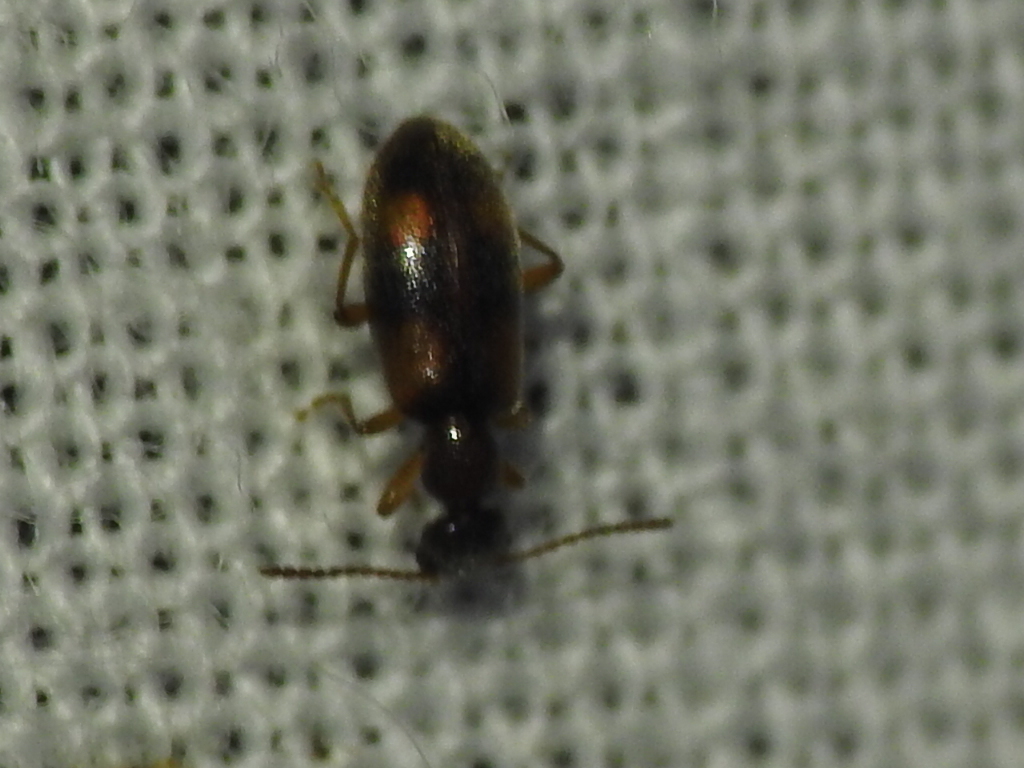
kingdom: Animalia
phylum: Arthropoda
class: Insecta
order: Coleoptera
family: Anthicidae
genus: Anthicus
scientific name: Anthicus cervinus
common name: Cloudy flower beetle
